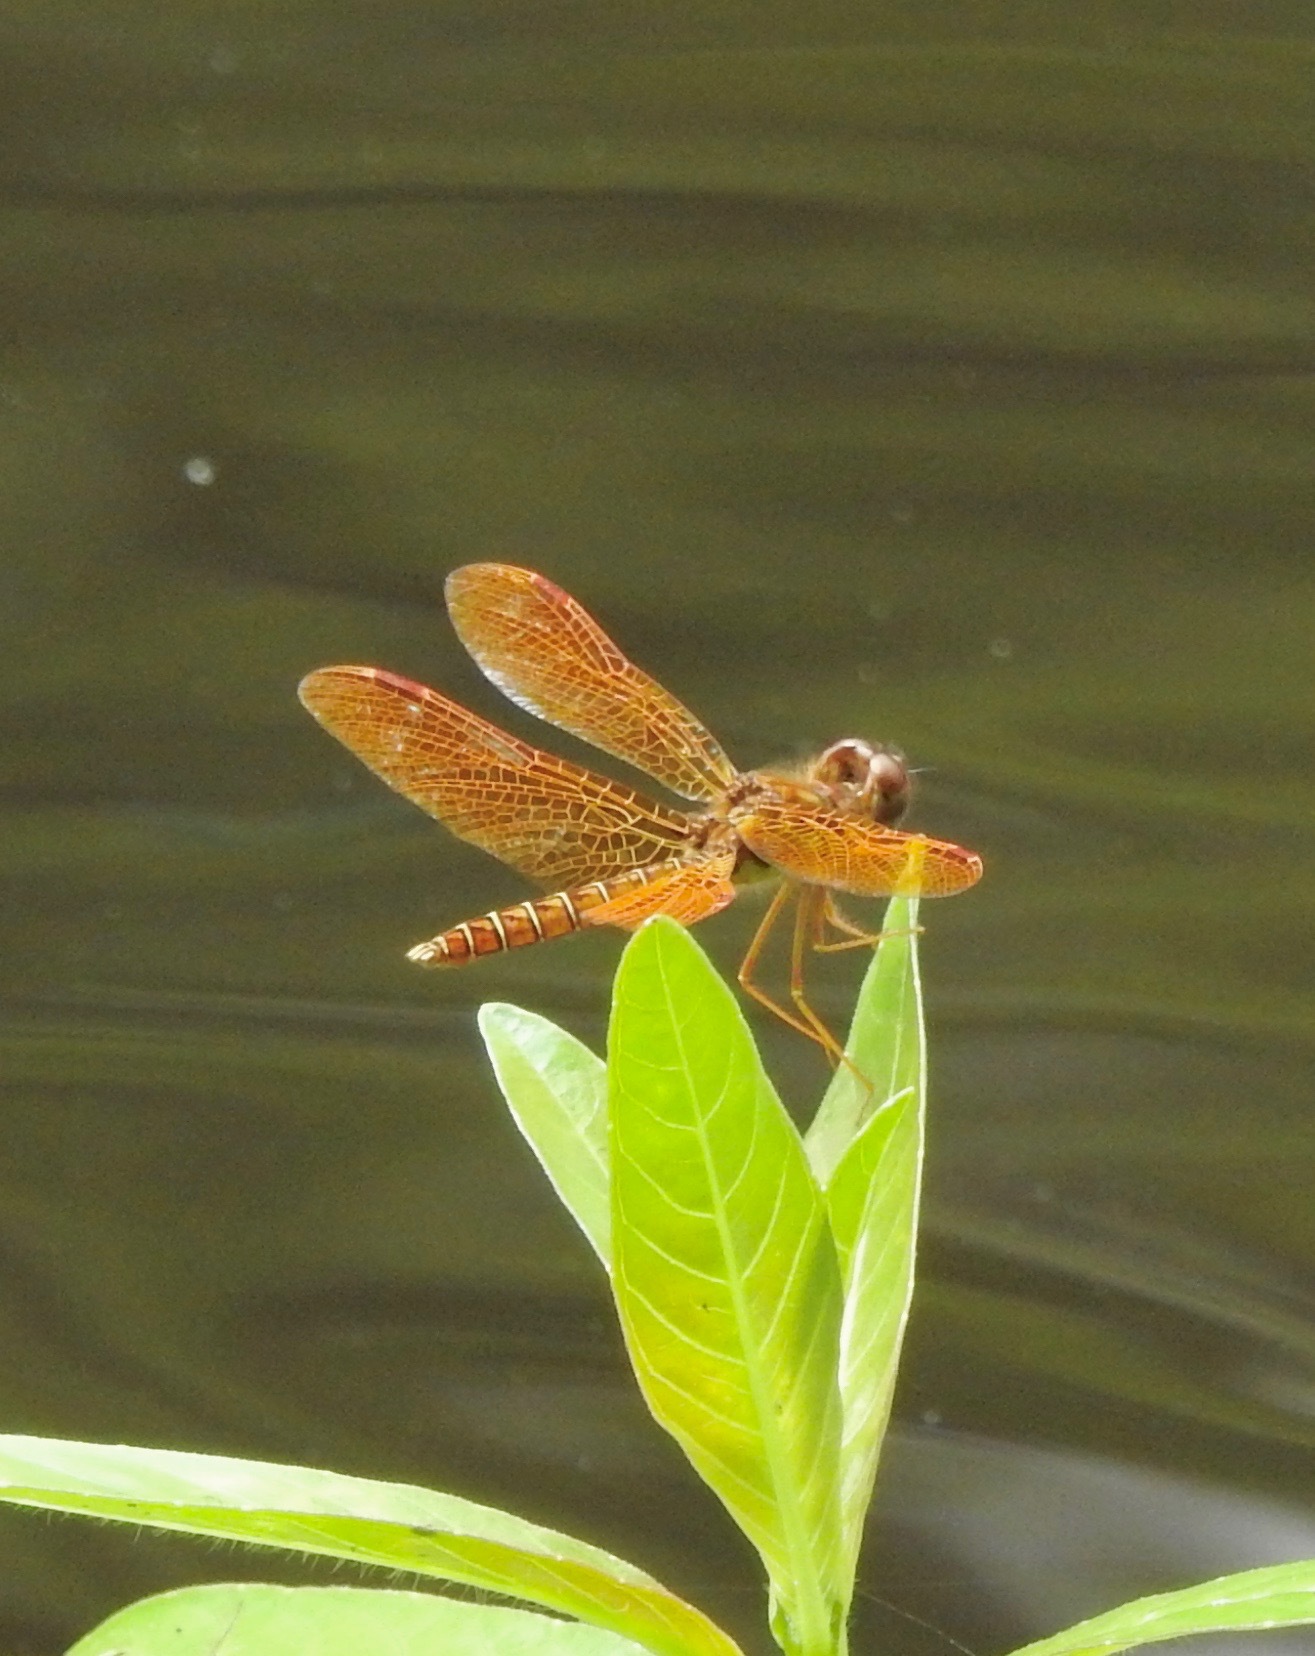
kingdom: Animalia
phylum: Arthropoda
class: Insecta
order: Odonata
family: Libellulidae
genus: Perithemis
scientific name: Perithemis tenera
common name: Eastern amberwing
